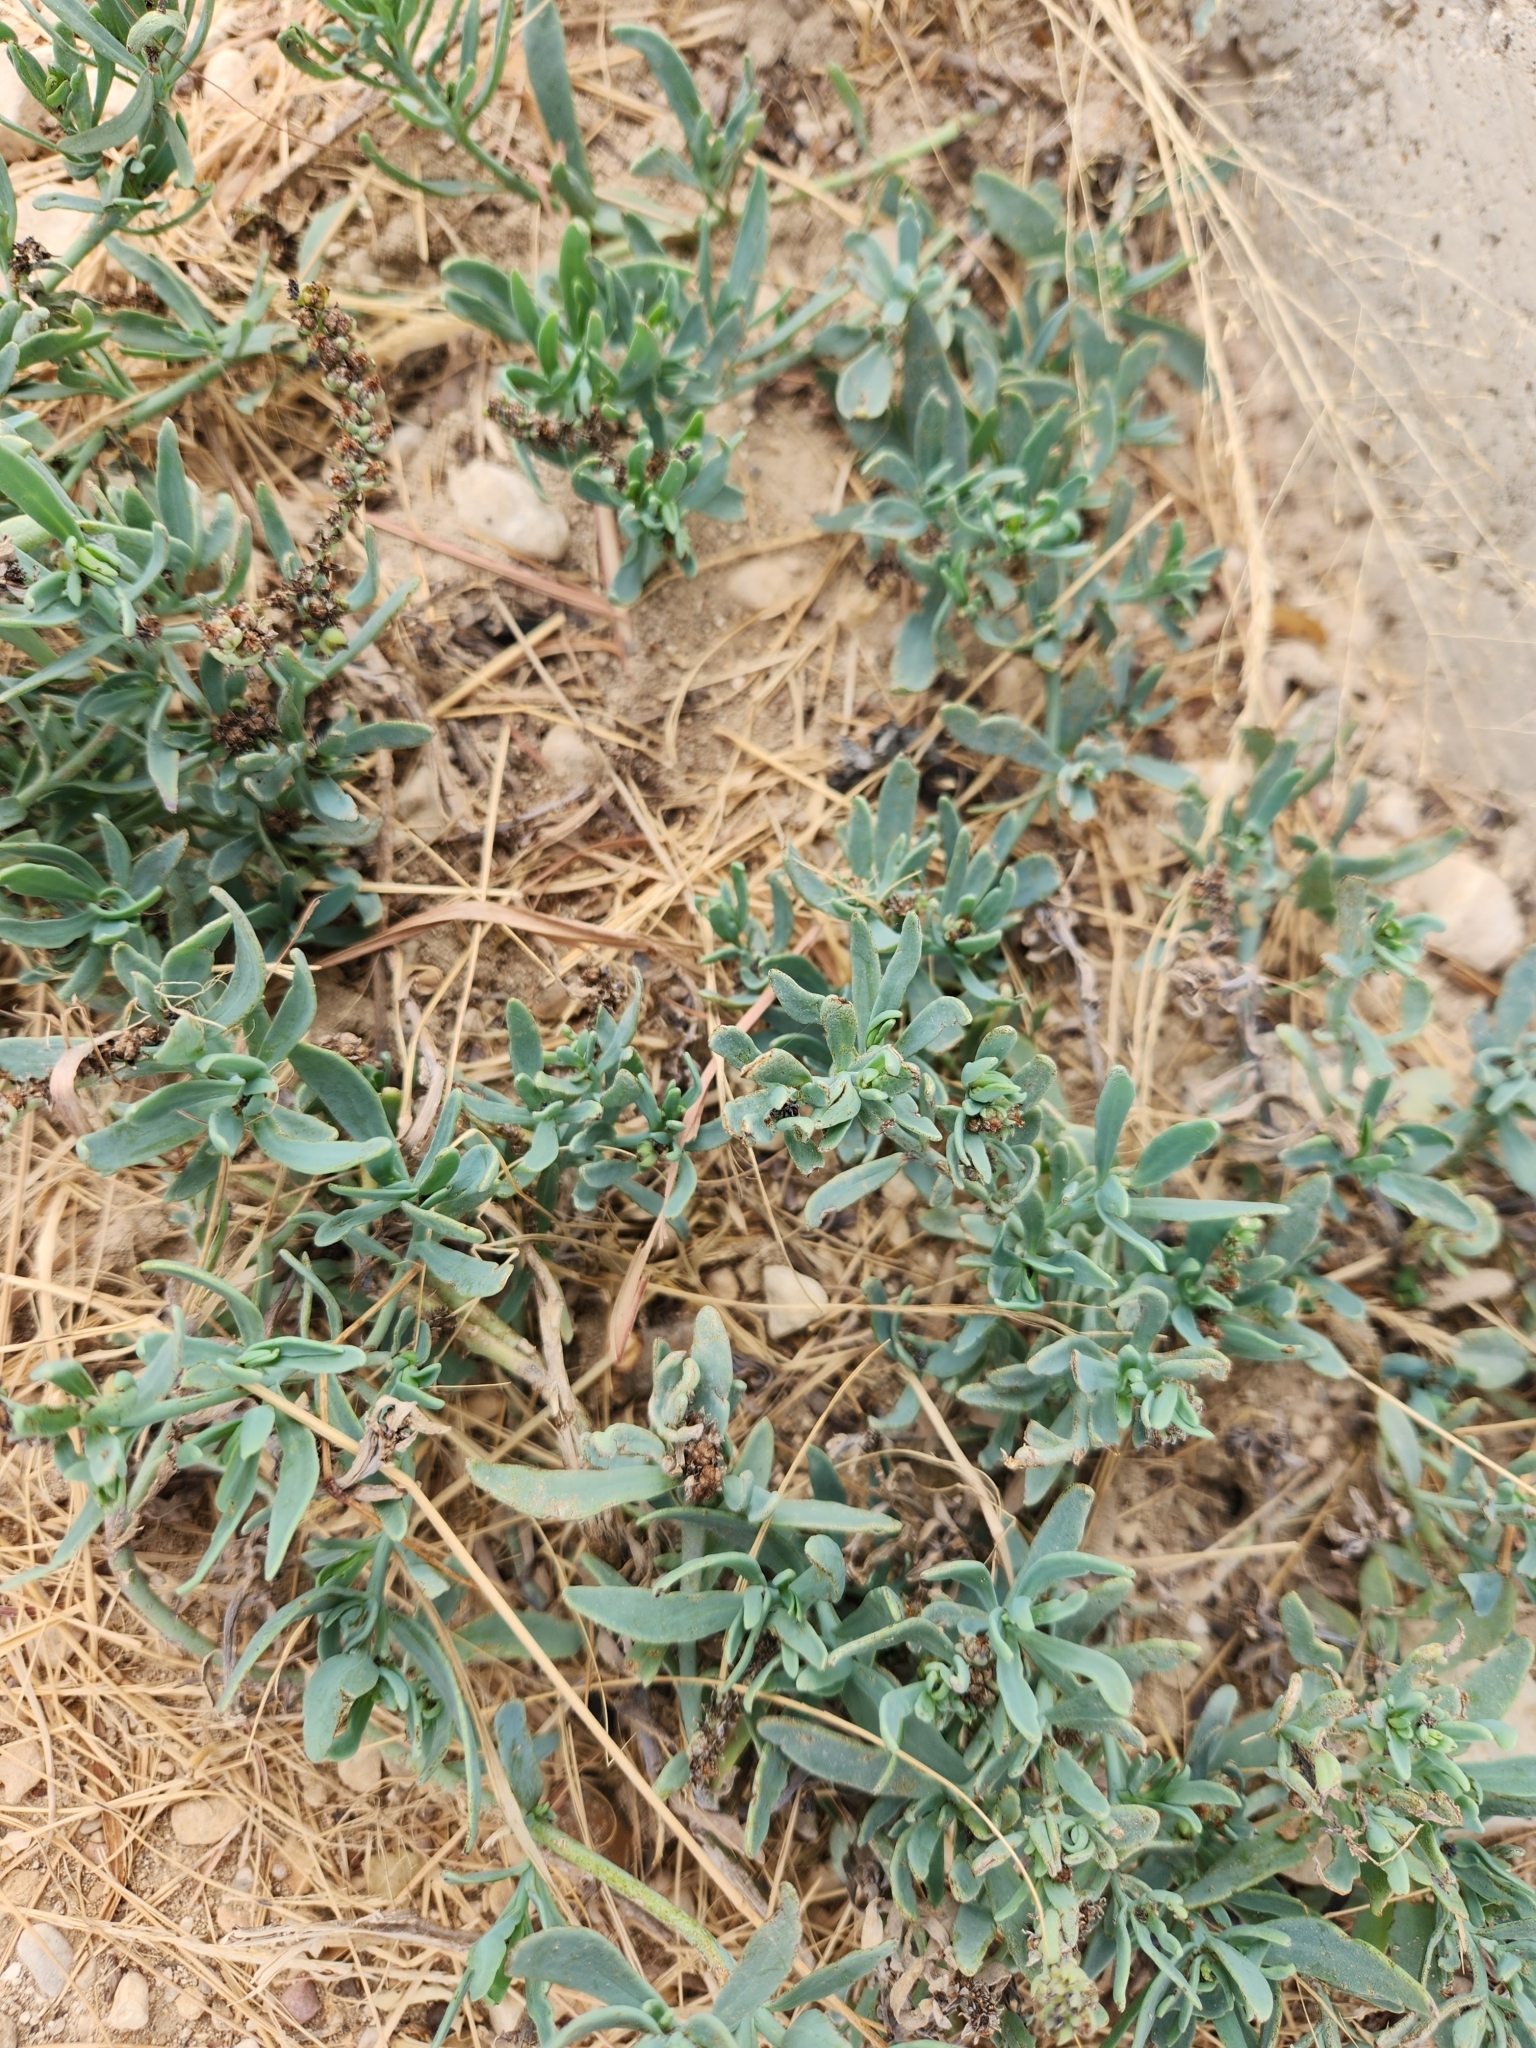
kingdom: Plantae
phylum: Tracheophyta
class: Magnoliopsida
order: Boraginales
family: Heliotropiaceae
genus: Heliotropium
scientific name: Heliotropium curassavicum
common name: Seaside heliotrope
